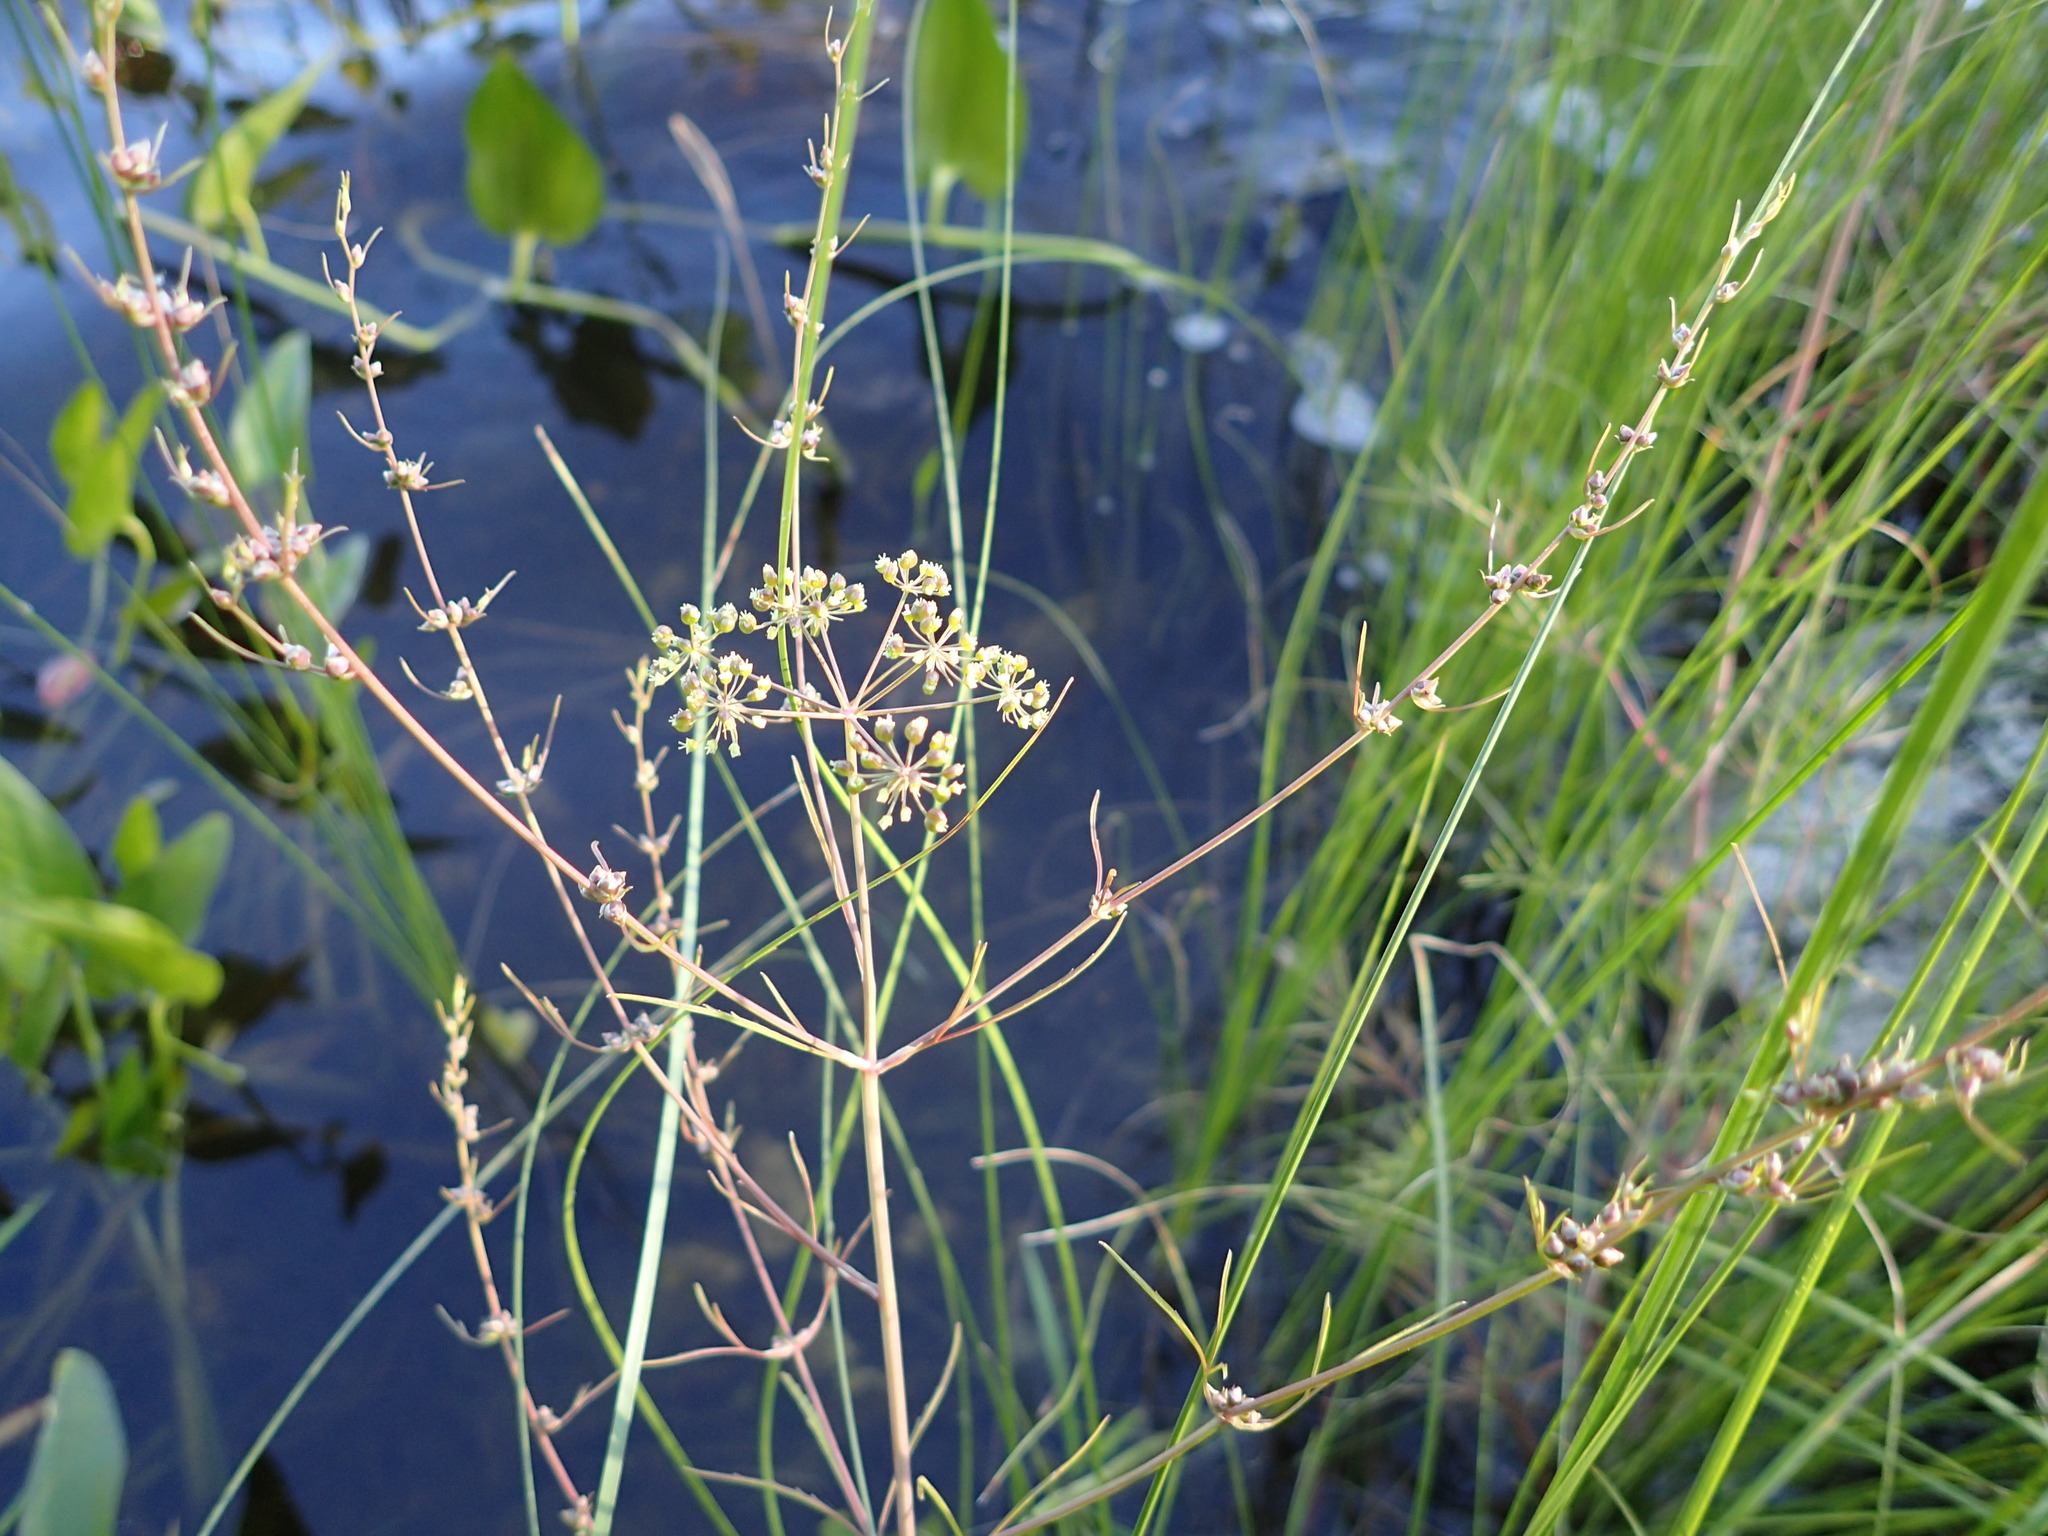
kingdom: Plantae
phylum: Tracheophyta
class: Magnoliopsida
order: Apiales
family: Apiaceae
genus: Cicuta
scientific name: Cicuta bulbifera
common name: Bulb-bearing water-hemlock
